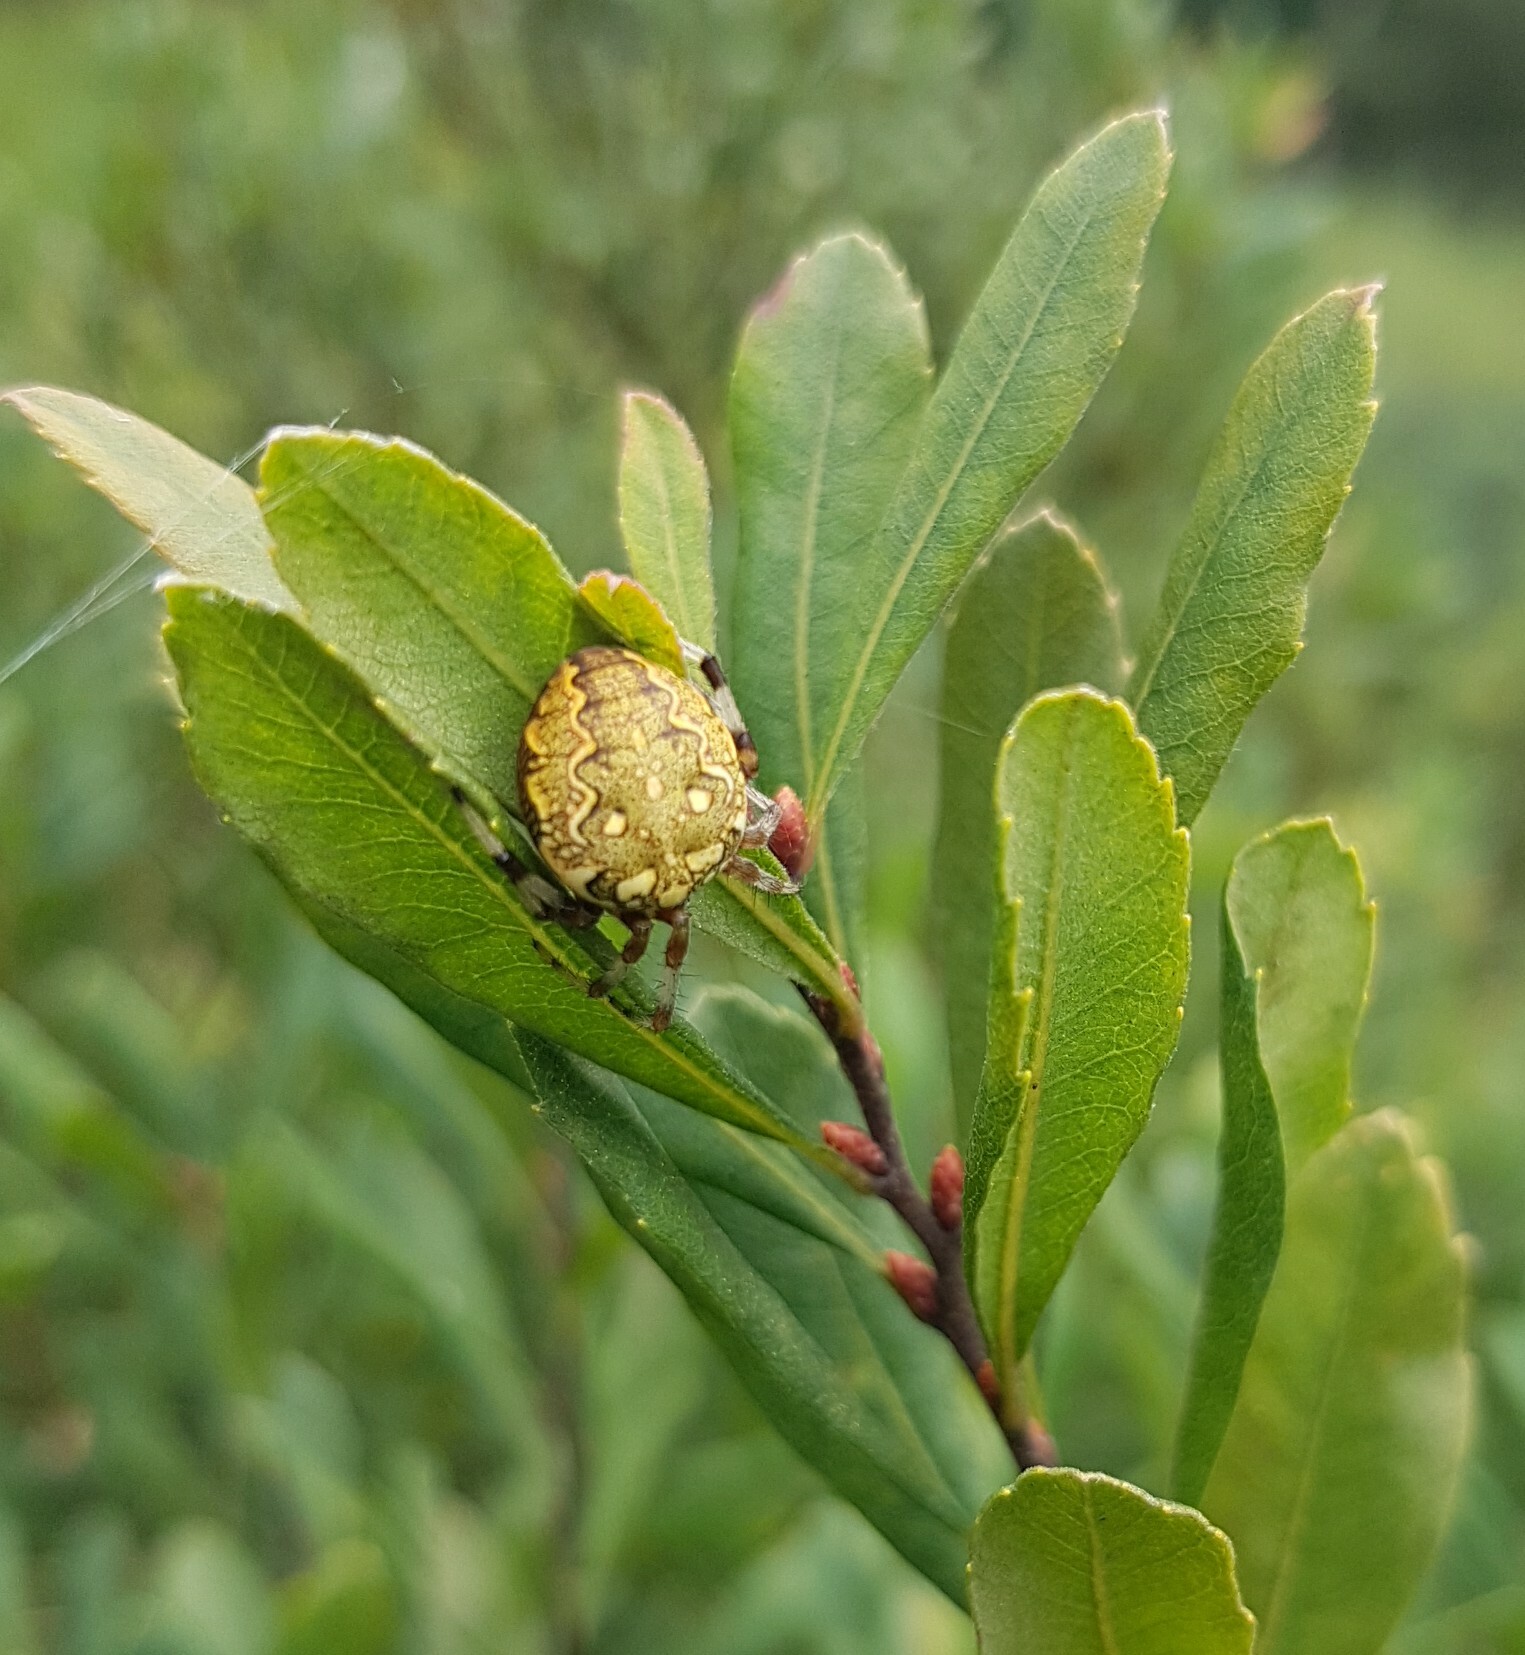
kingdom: Animalia
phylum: Arthropoda
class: Arachnida
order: Araneae
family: Araneidae
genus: Araneus
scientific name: Araneus marmoreus
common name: Marbled orbweaver
